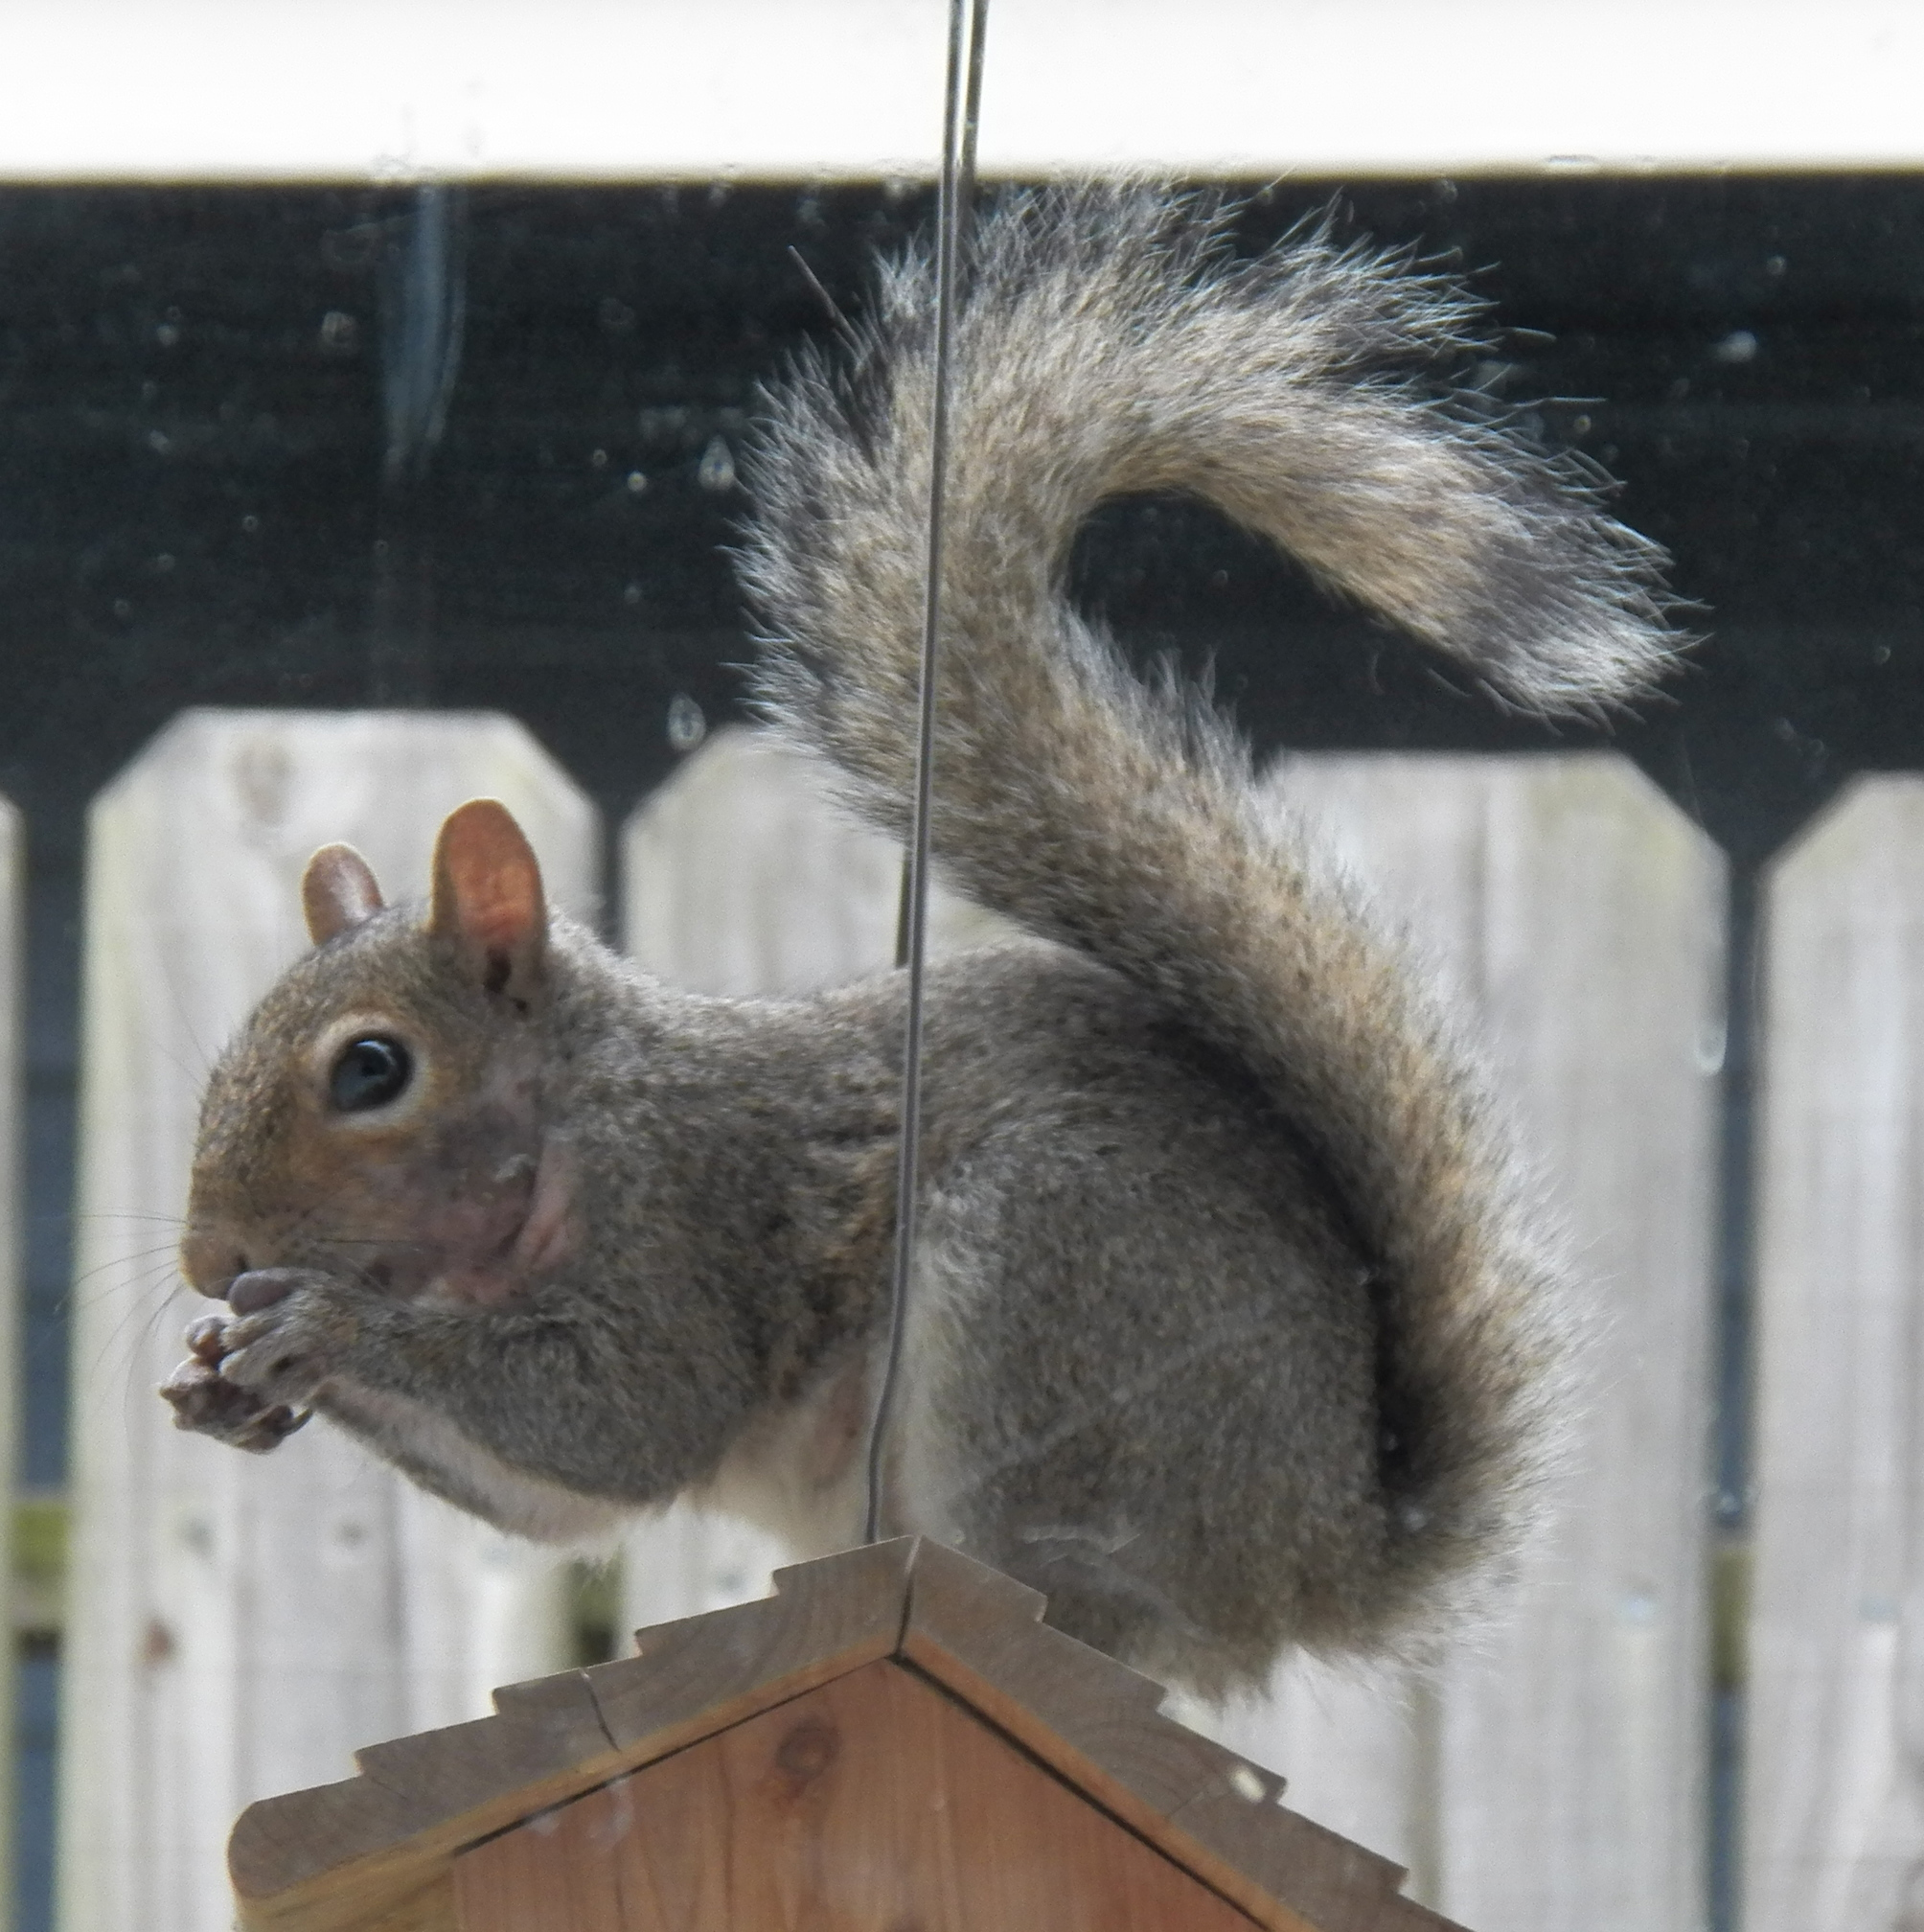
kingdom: Animalia
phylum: Chordata
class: Mammalia
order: Rodentia
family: Sciuridae
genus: Sciurus
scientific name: Sciurus carolinensis
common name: Eastern gray squirrel
